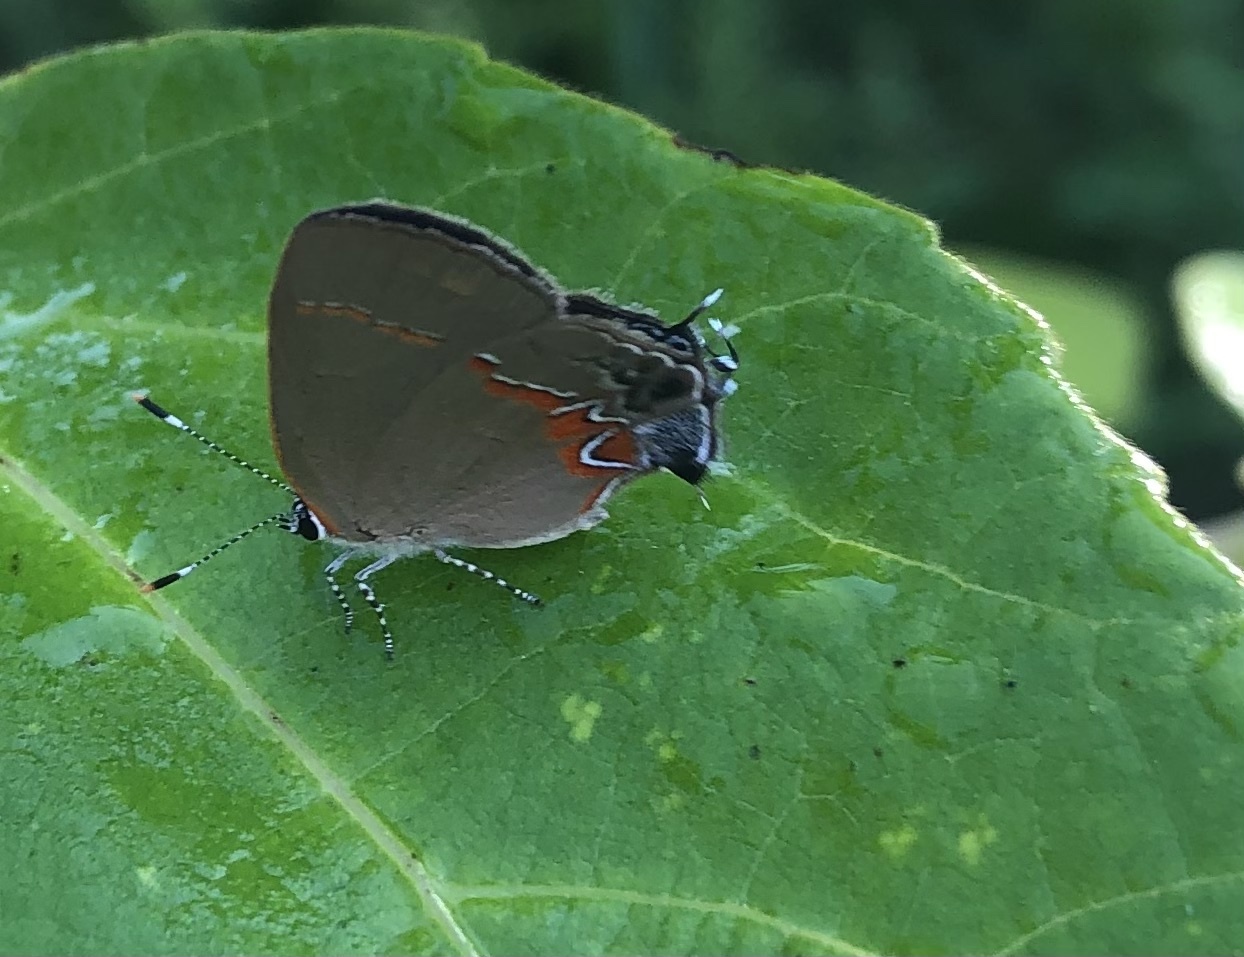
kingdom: Animalia
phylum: Arthropoda
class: Insecta
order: Lepidoptera
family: Lycaenidae
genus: Calycopis
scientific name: Calycopis cecrops
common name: Red-banded hairstreak
